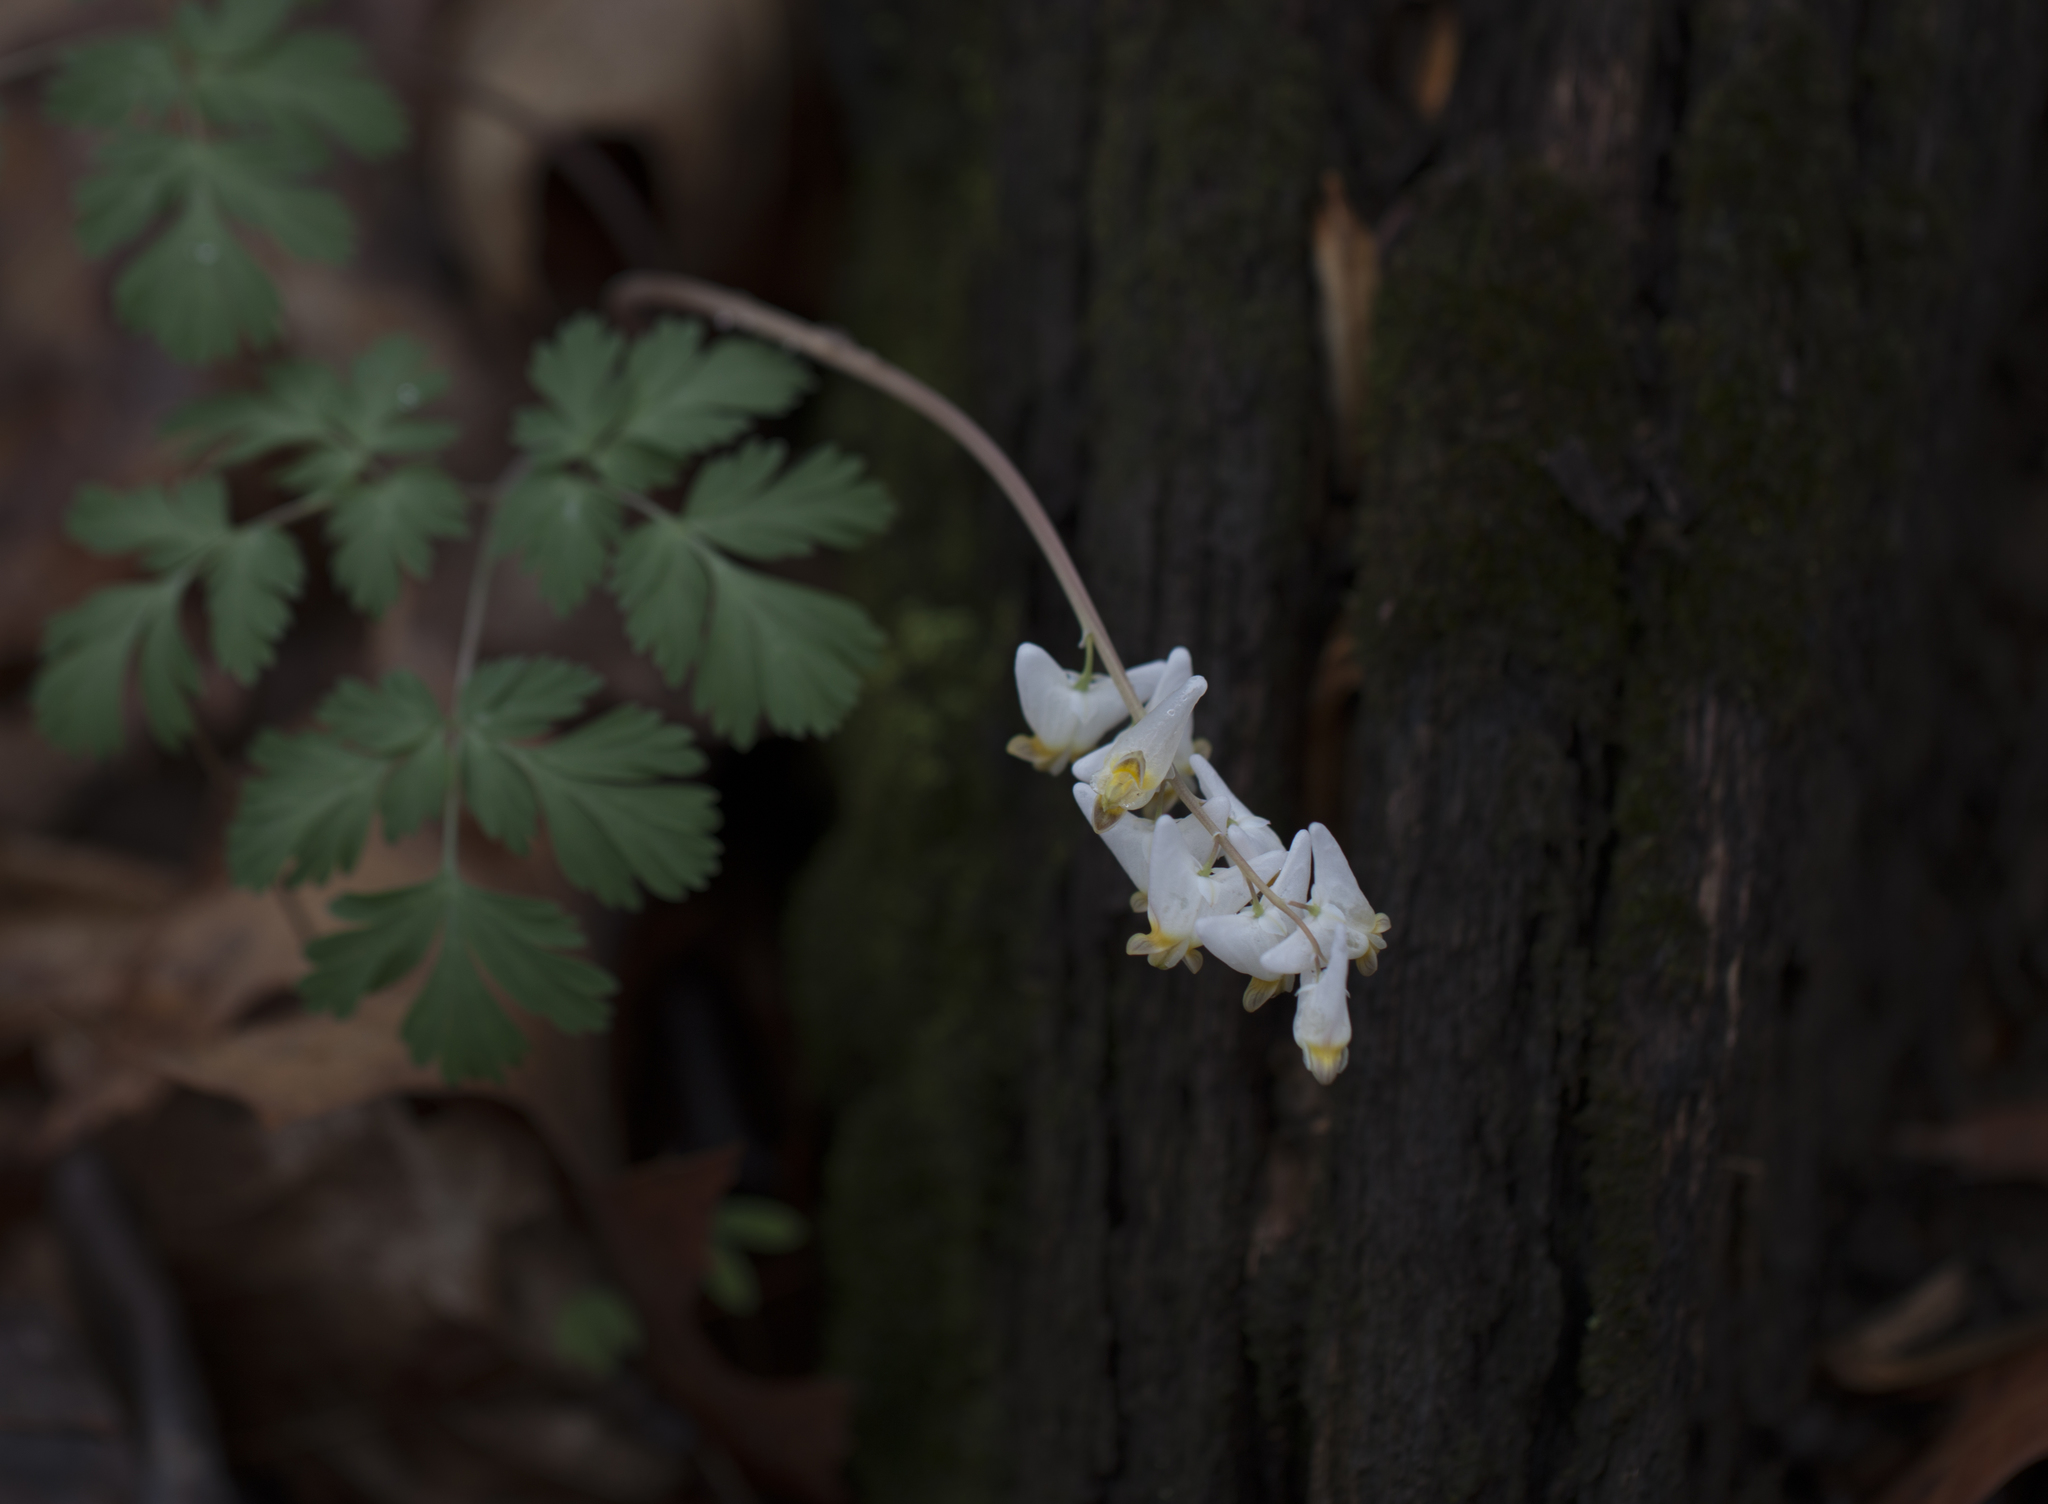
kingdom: Plantae
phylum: Tracheophyta
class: Magnoliopsida
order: Ranunculales
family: Papaveraceae
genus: Dicentra
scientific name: Dicentra cucullaria
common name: Dutchman's breeches
